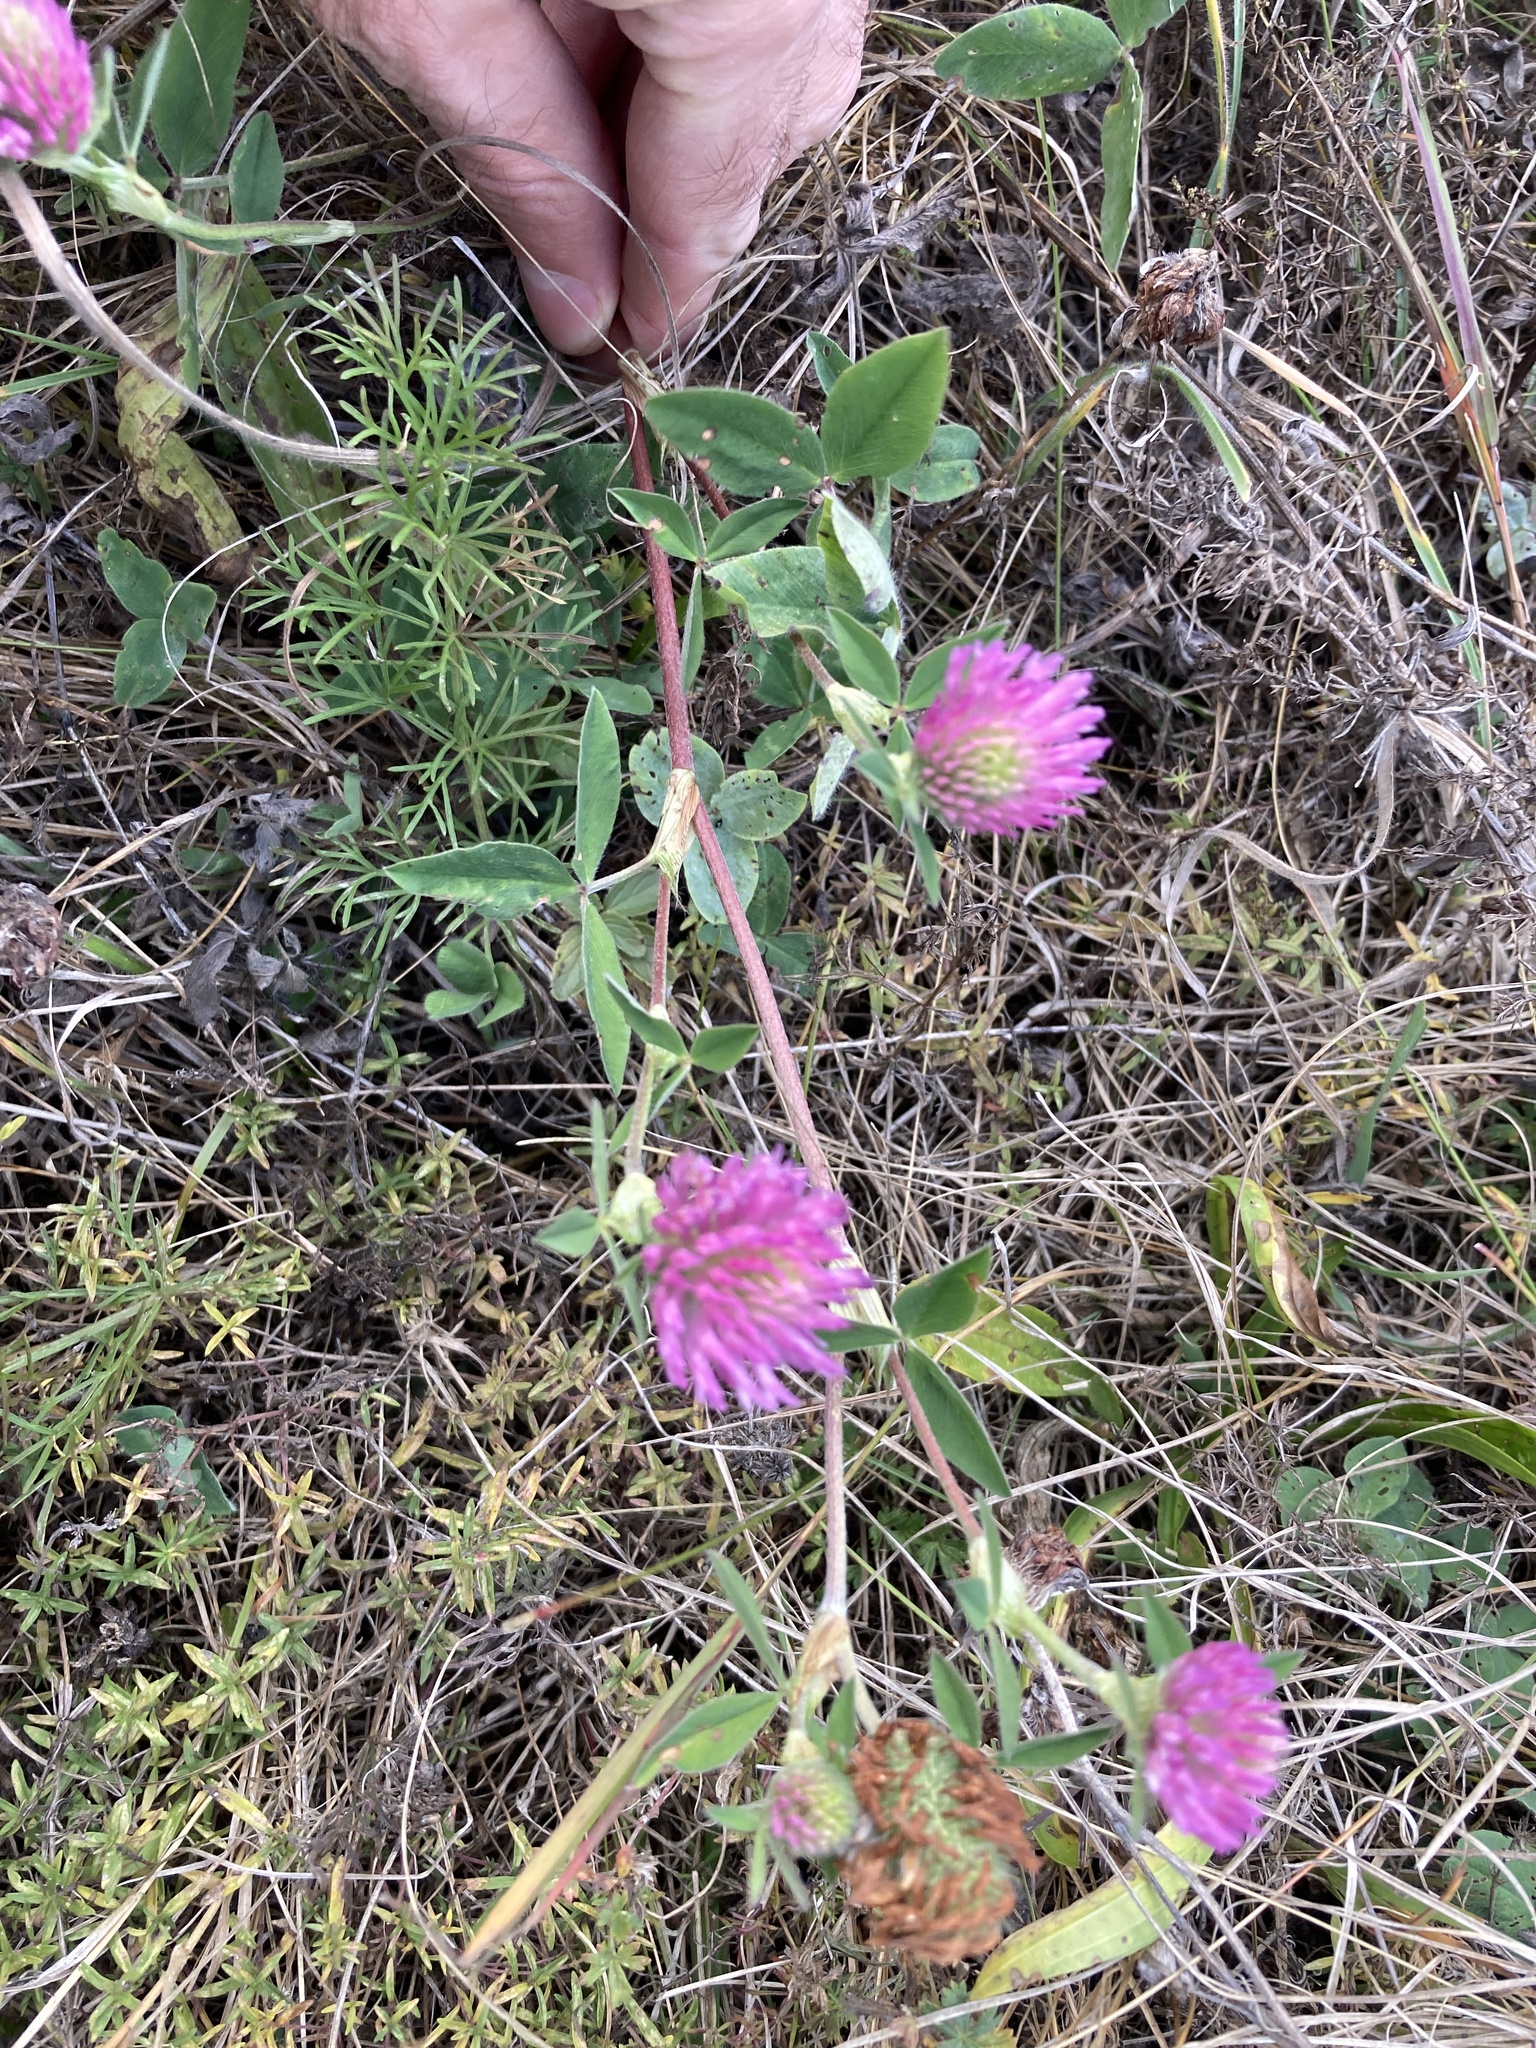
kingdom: Plantae
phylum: Tracheophyta
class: Magnoliopsida
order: Fabales
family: Fabaceae
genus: Trifolium
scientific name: Trifolium pratense
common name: Red clover
